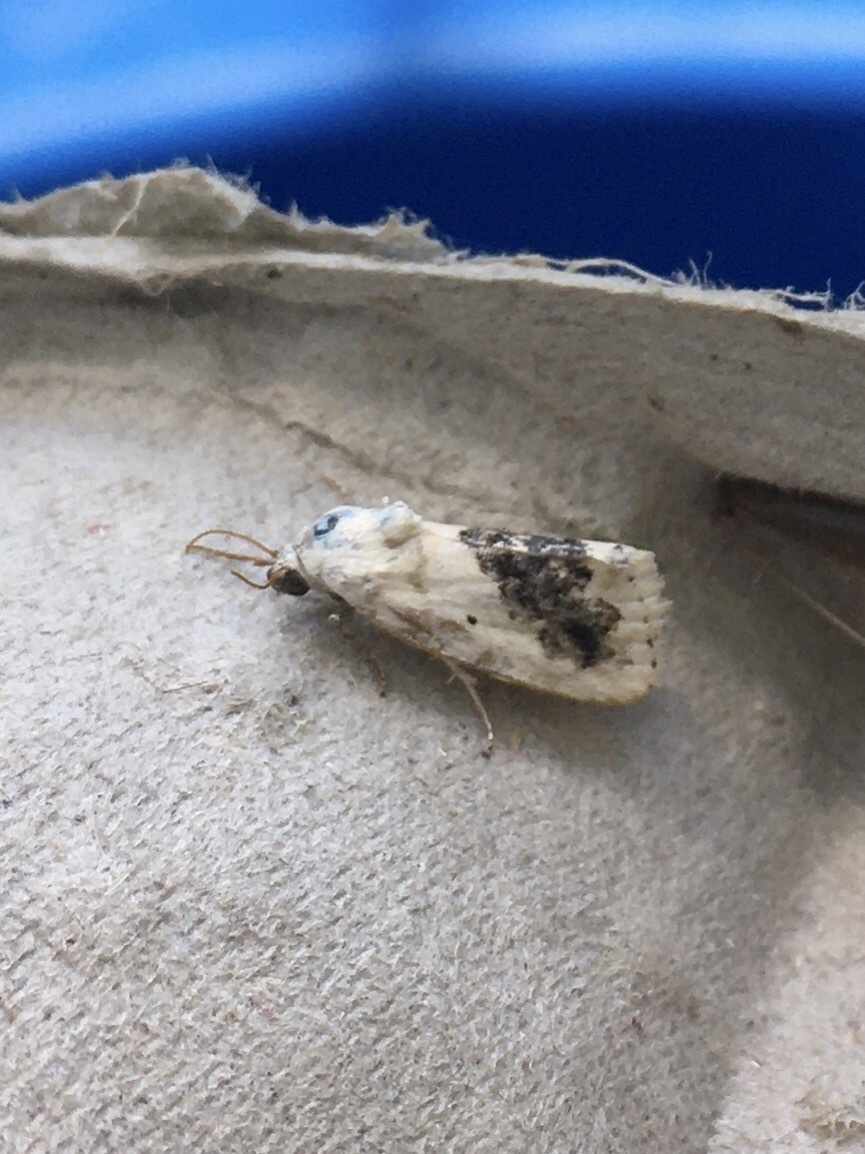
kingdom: Animalia
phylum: Arthropoda
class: Insecta
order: Lepidoptera
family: Noctuidae
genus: Acontia
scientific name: Acontia erastrioides
